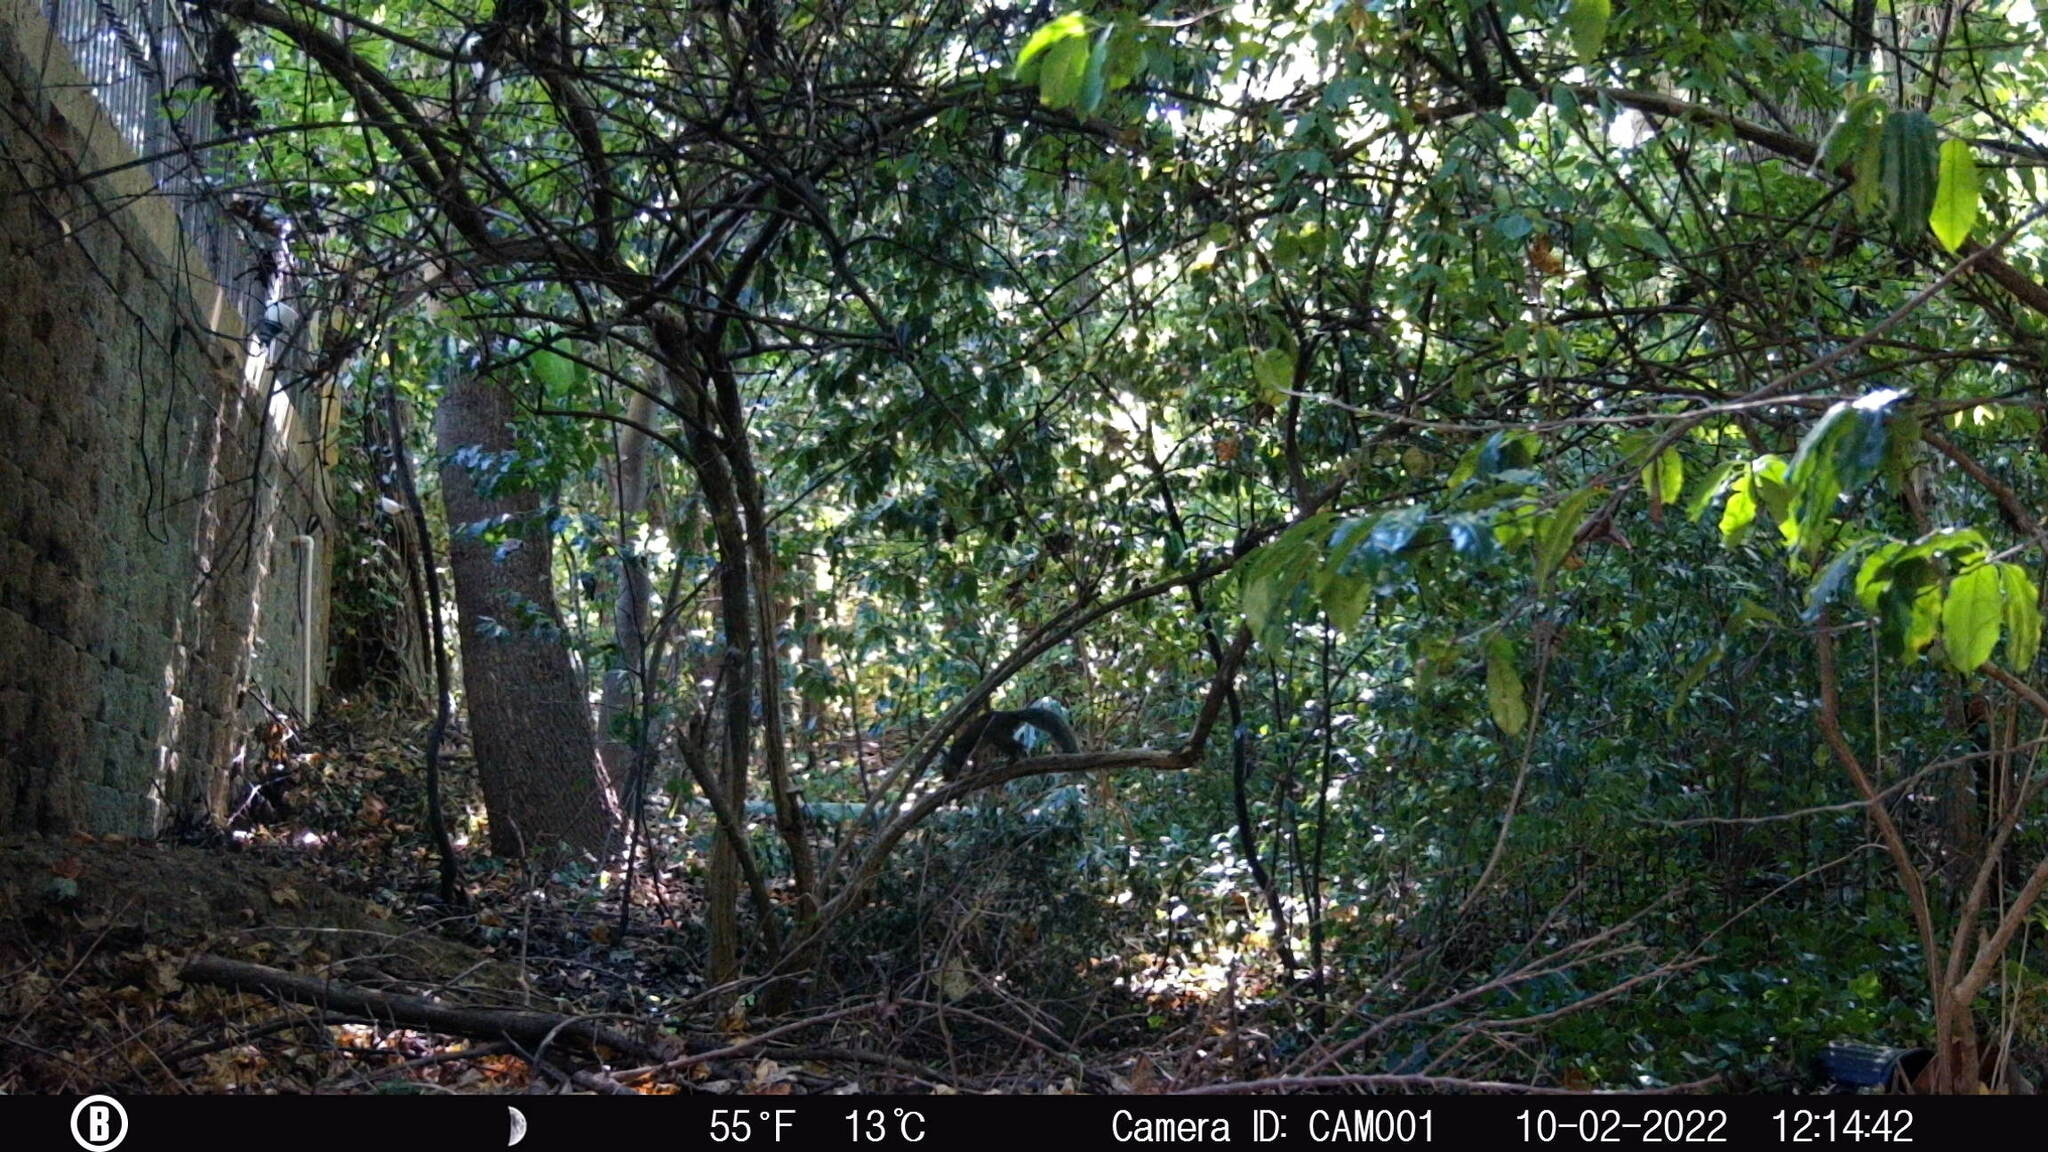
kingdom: Animalia
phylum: Chordata
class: Mammalia
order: Rodentia
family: Sciuridae
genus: Sciurus
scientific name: Sciurus carolinensis
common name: Eastern gray squirrel
